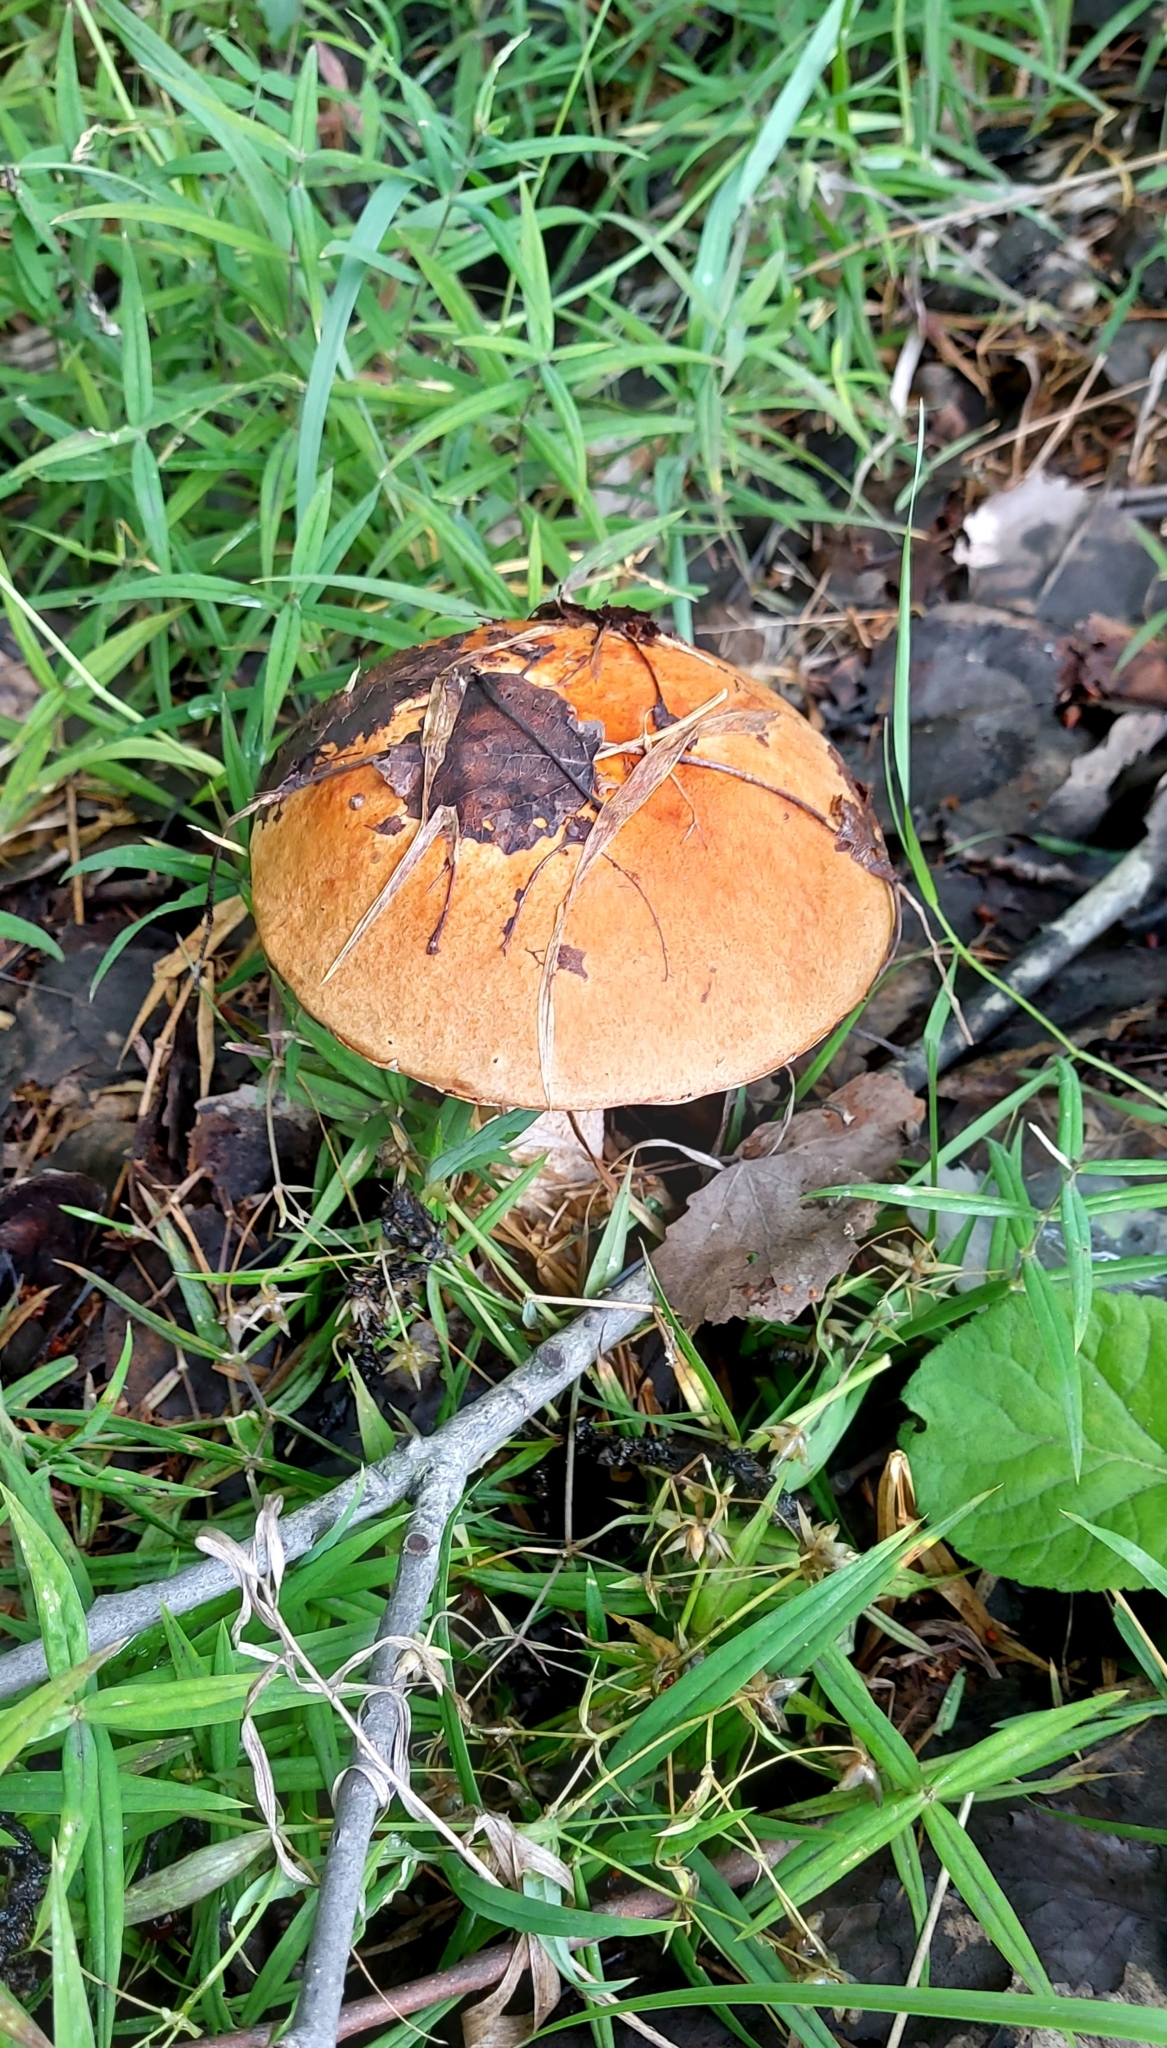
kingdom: Fungi
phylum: Basidiomycota
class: Agaricomycetes
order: Boletales
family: Boletaceae
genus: Leccinum
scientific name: Leccinum albostipitatum
